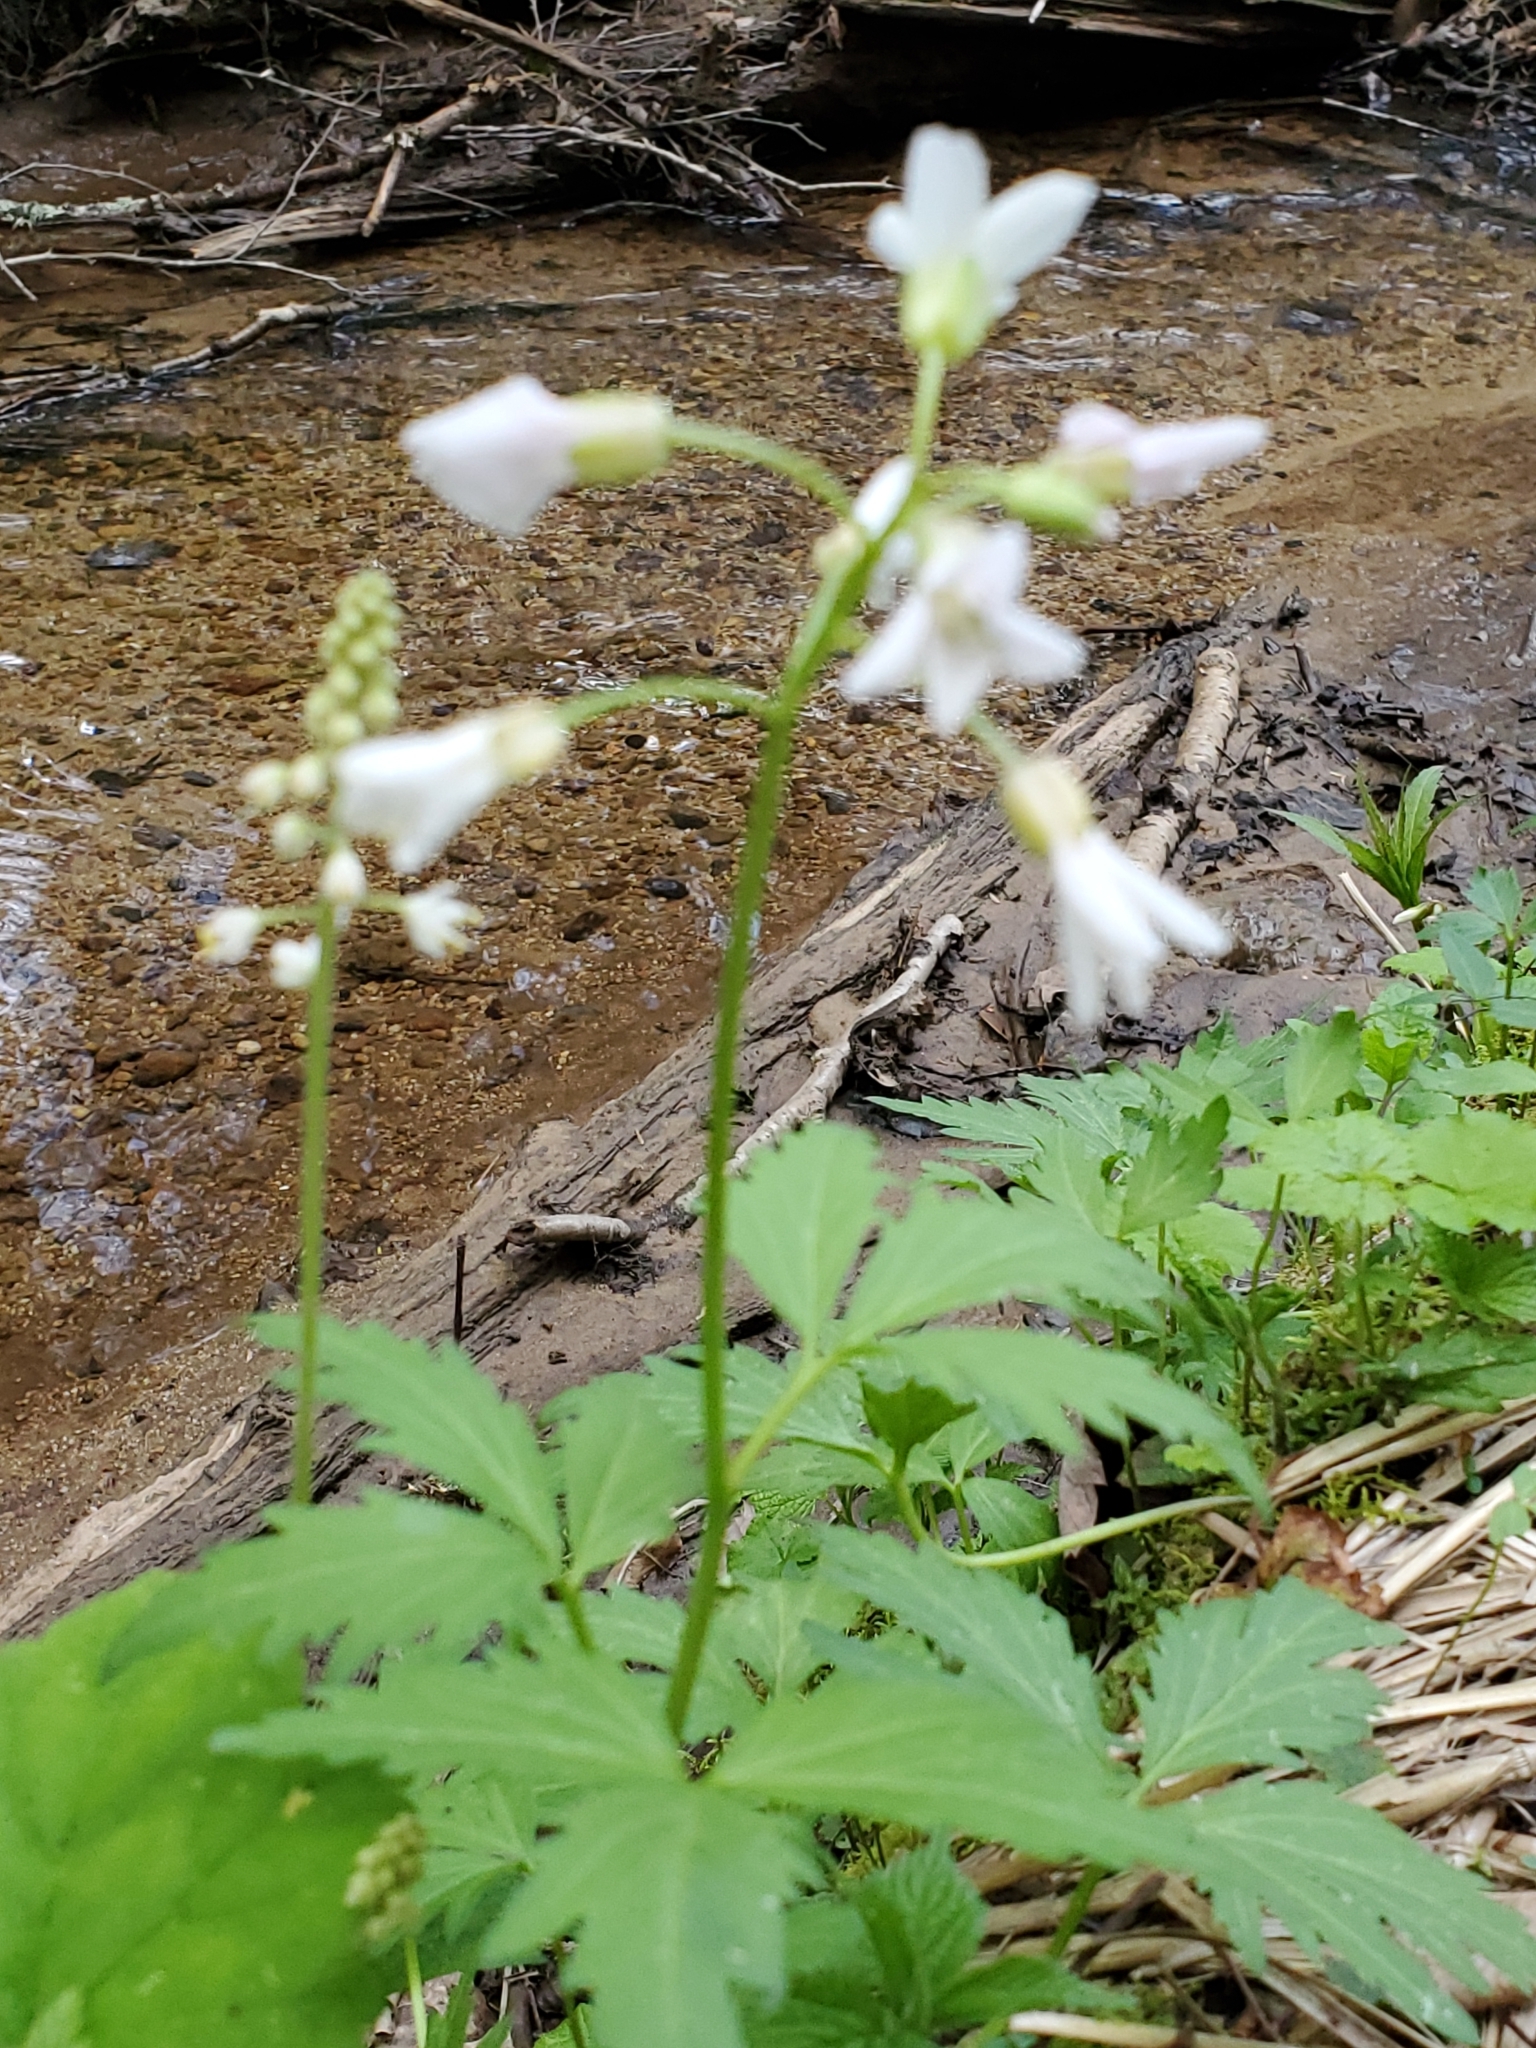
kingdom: Plantae
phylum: Tracheophyta
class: Magnoliopsida
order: Brassicales
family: Brassicaceae
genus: Cardamine
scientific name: Cardamine diphylla
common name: Broad-leaved toothwort
